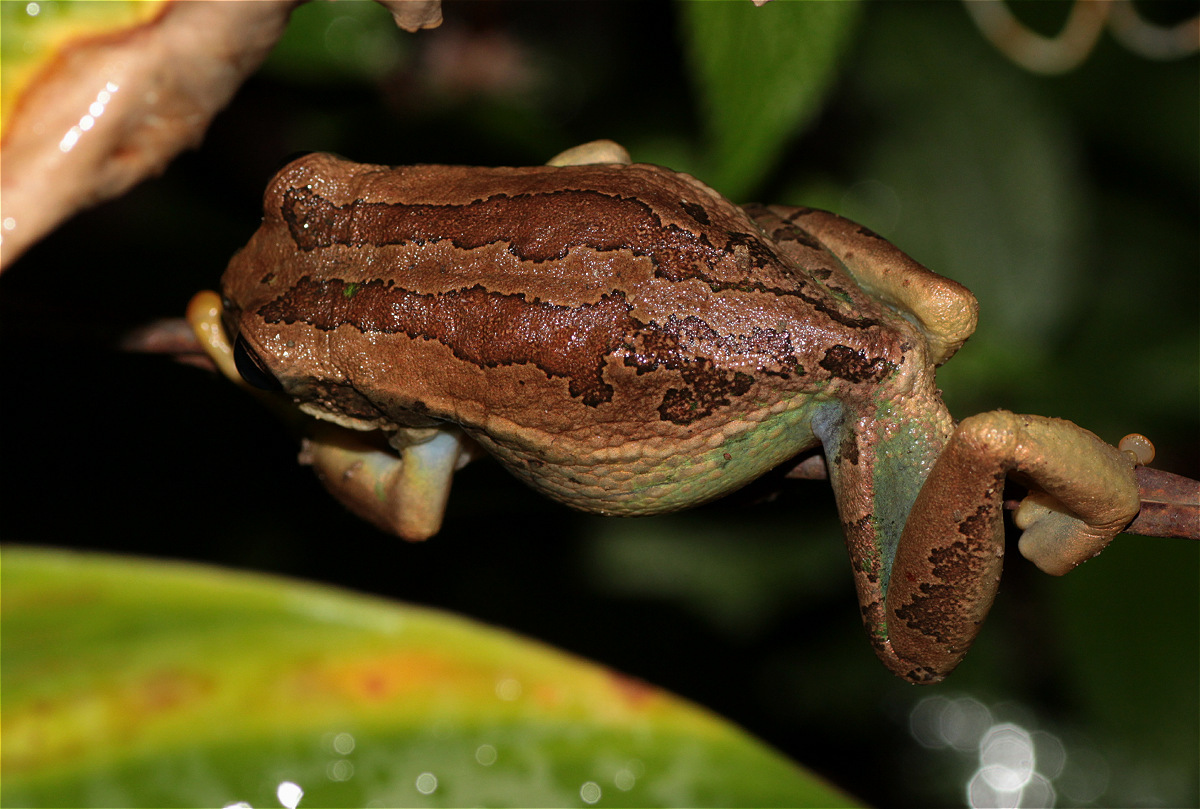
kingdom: Animalia
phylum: Chordata
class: Amphibia
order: Anura
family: Hemiphractidae
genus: Gastrotheca
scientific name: Gastrotheca cuencana
